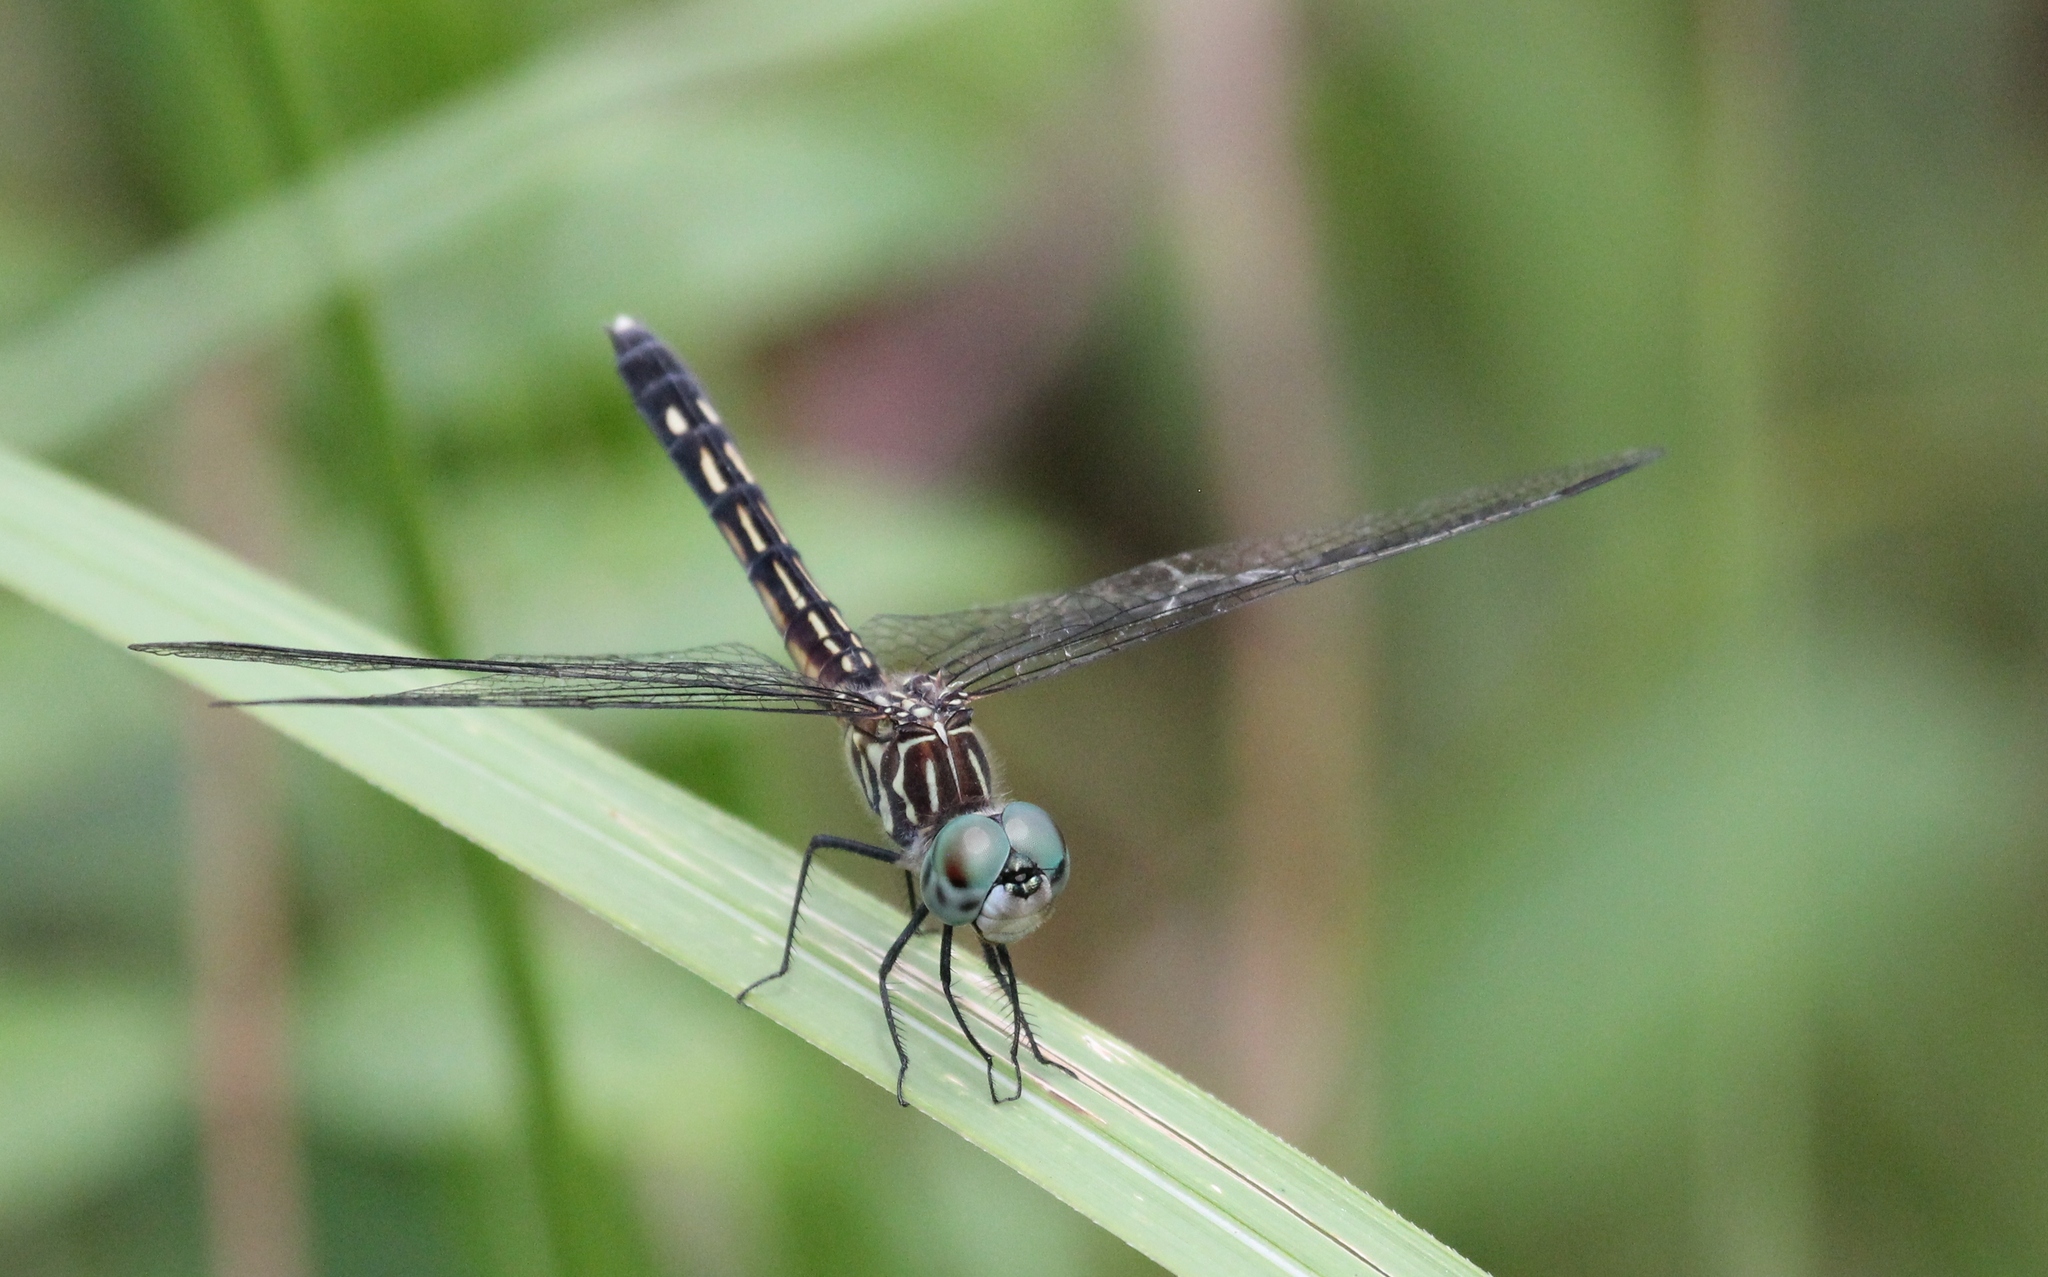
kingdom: Animalia
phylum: Arthropoda
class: Insecta
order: Odonata
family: Libellulidae
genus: Pachydiplax
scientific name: Pachydiplax longipennis
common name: Blue dasher
